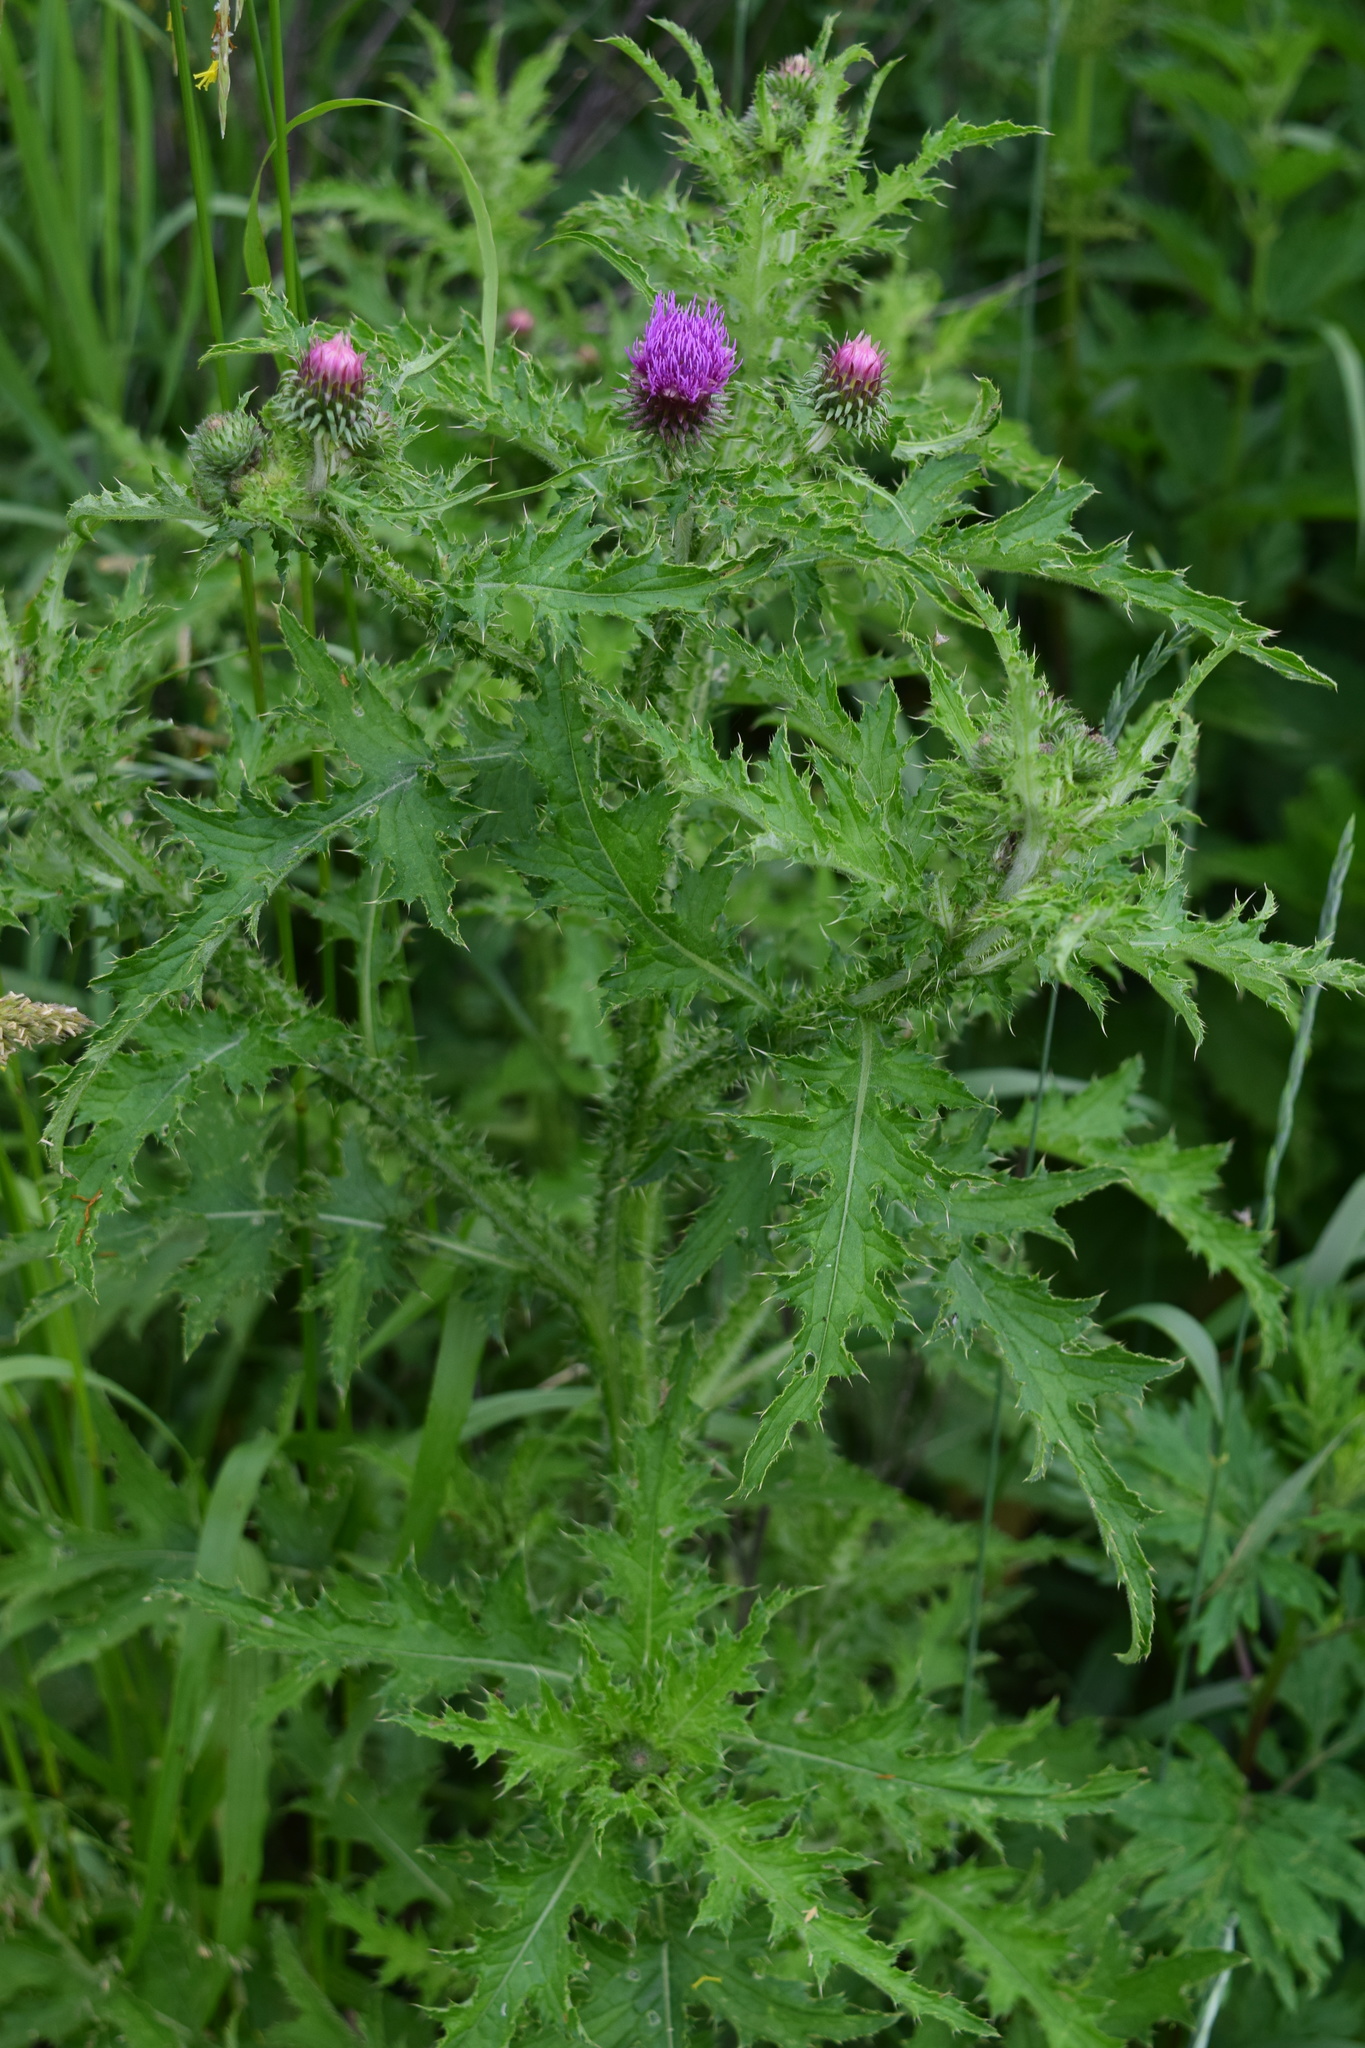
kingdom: Plantae
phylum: Tracheophyta
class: Magnoliopsida
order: Asterales
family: Asteraceae
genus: Carduus
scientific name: Carduus crispus
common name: Welted thistle
